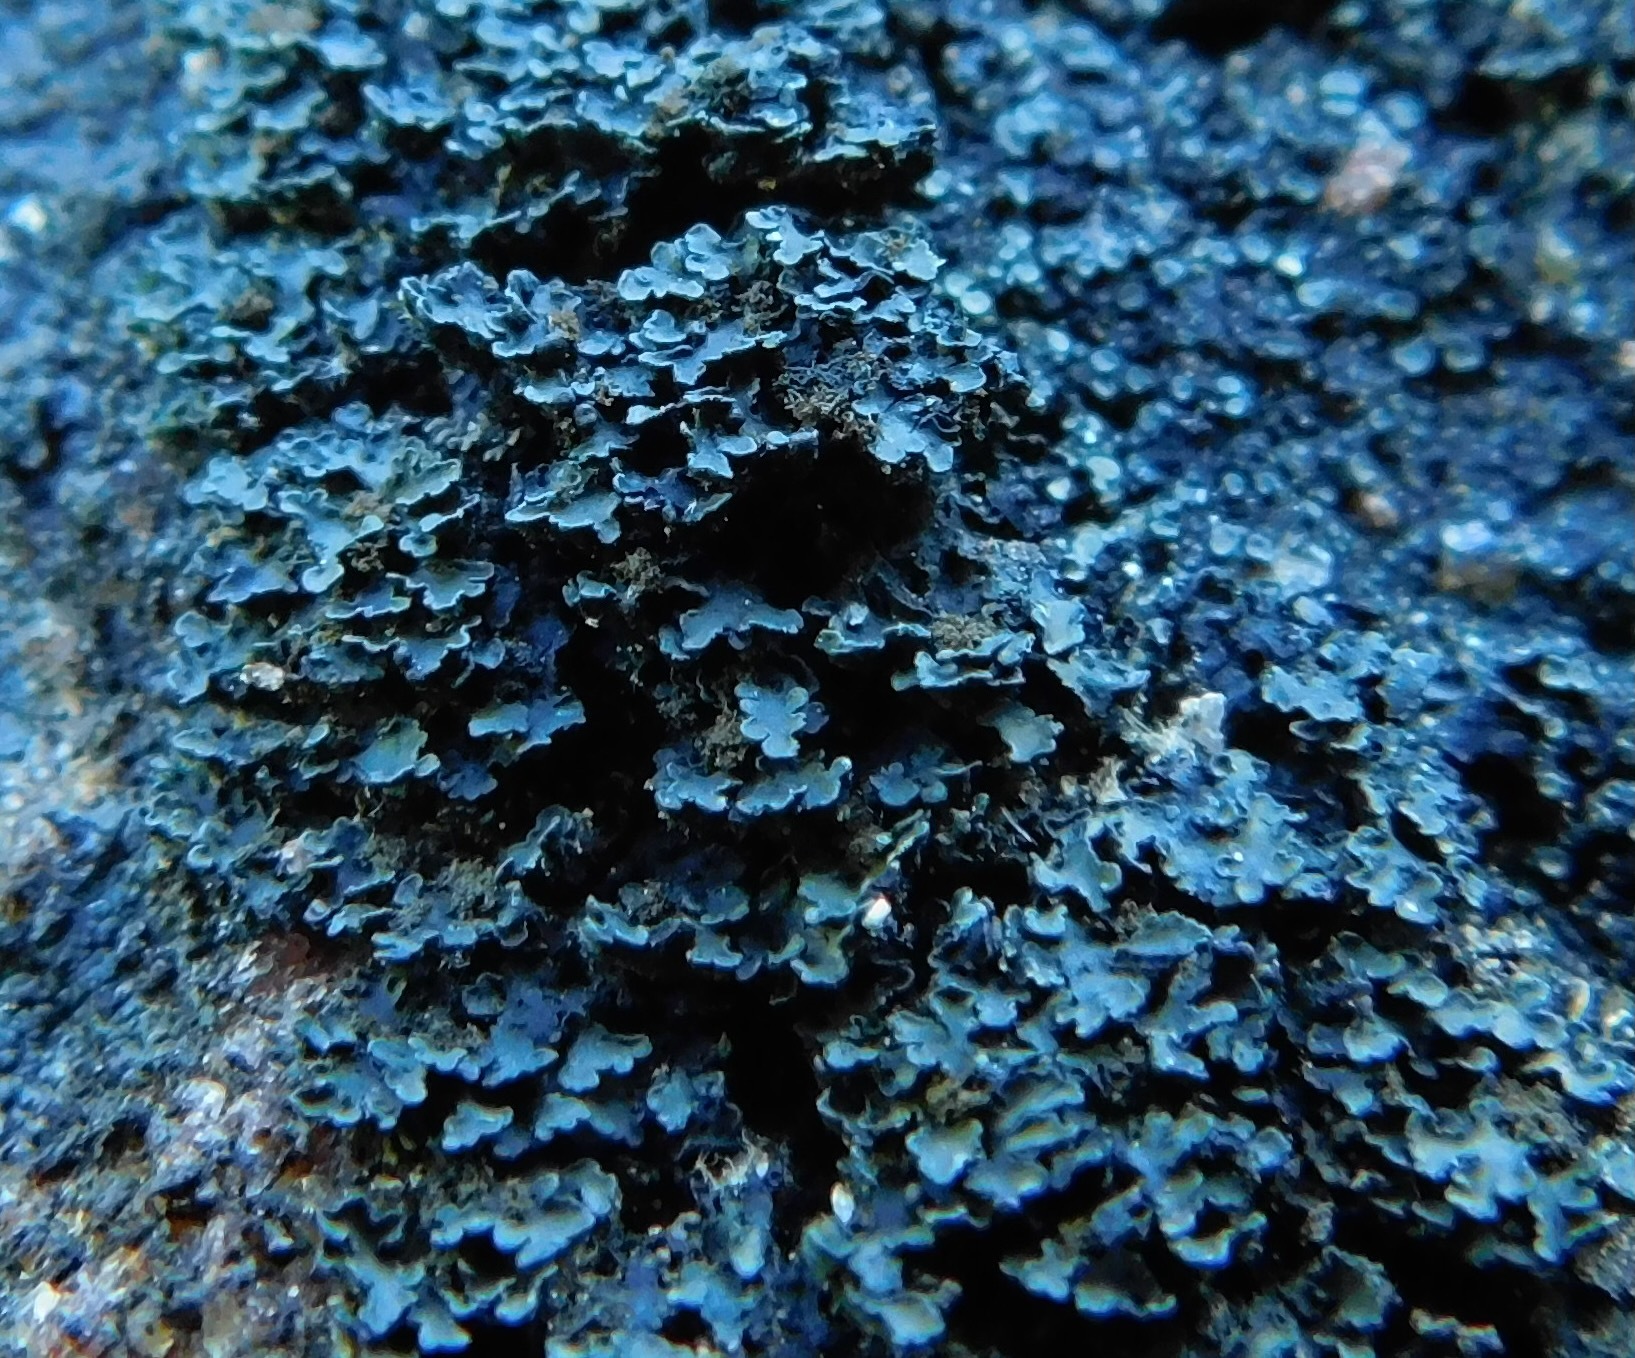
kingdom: Fungi
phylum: Ascomycota
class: Lecanoromycetes
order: Lecanorales
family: Psoraceae
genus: Psorula
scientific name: Psorula rufonigra
